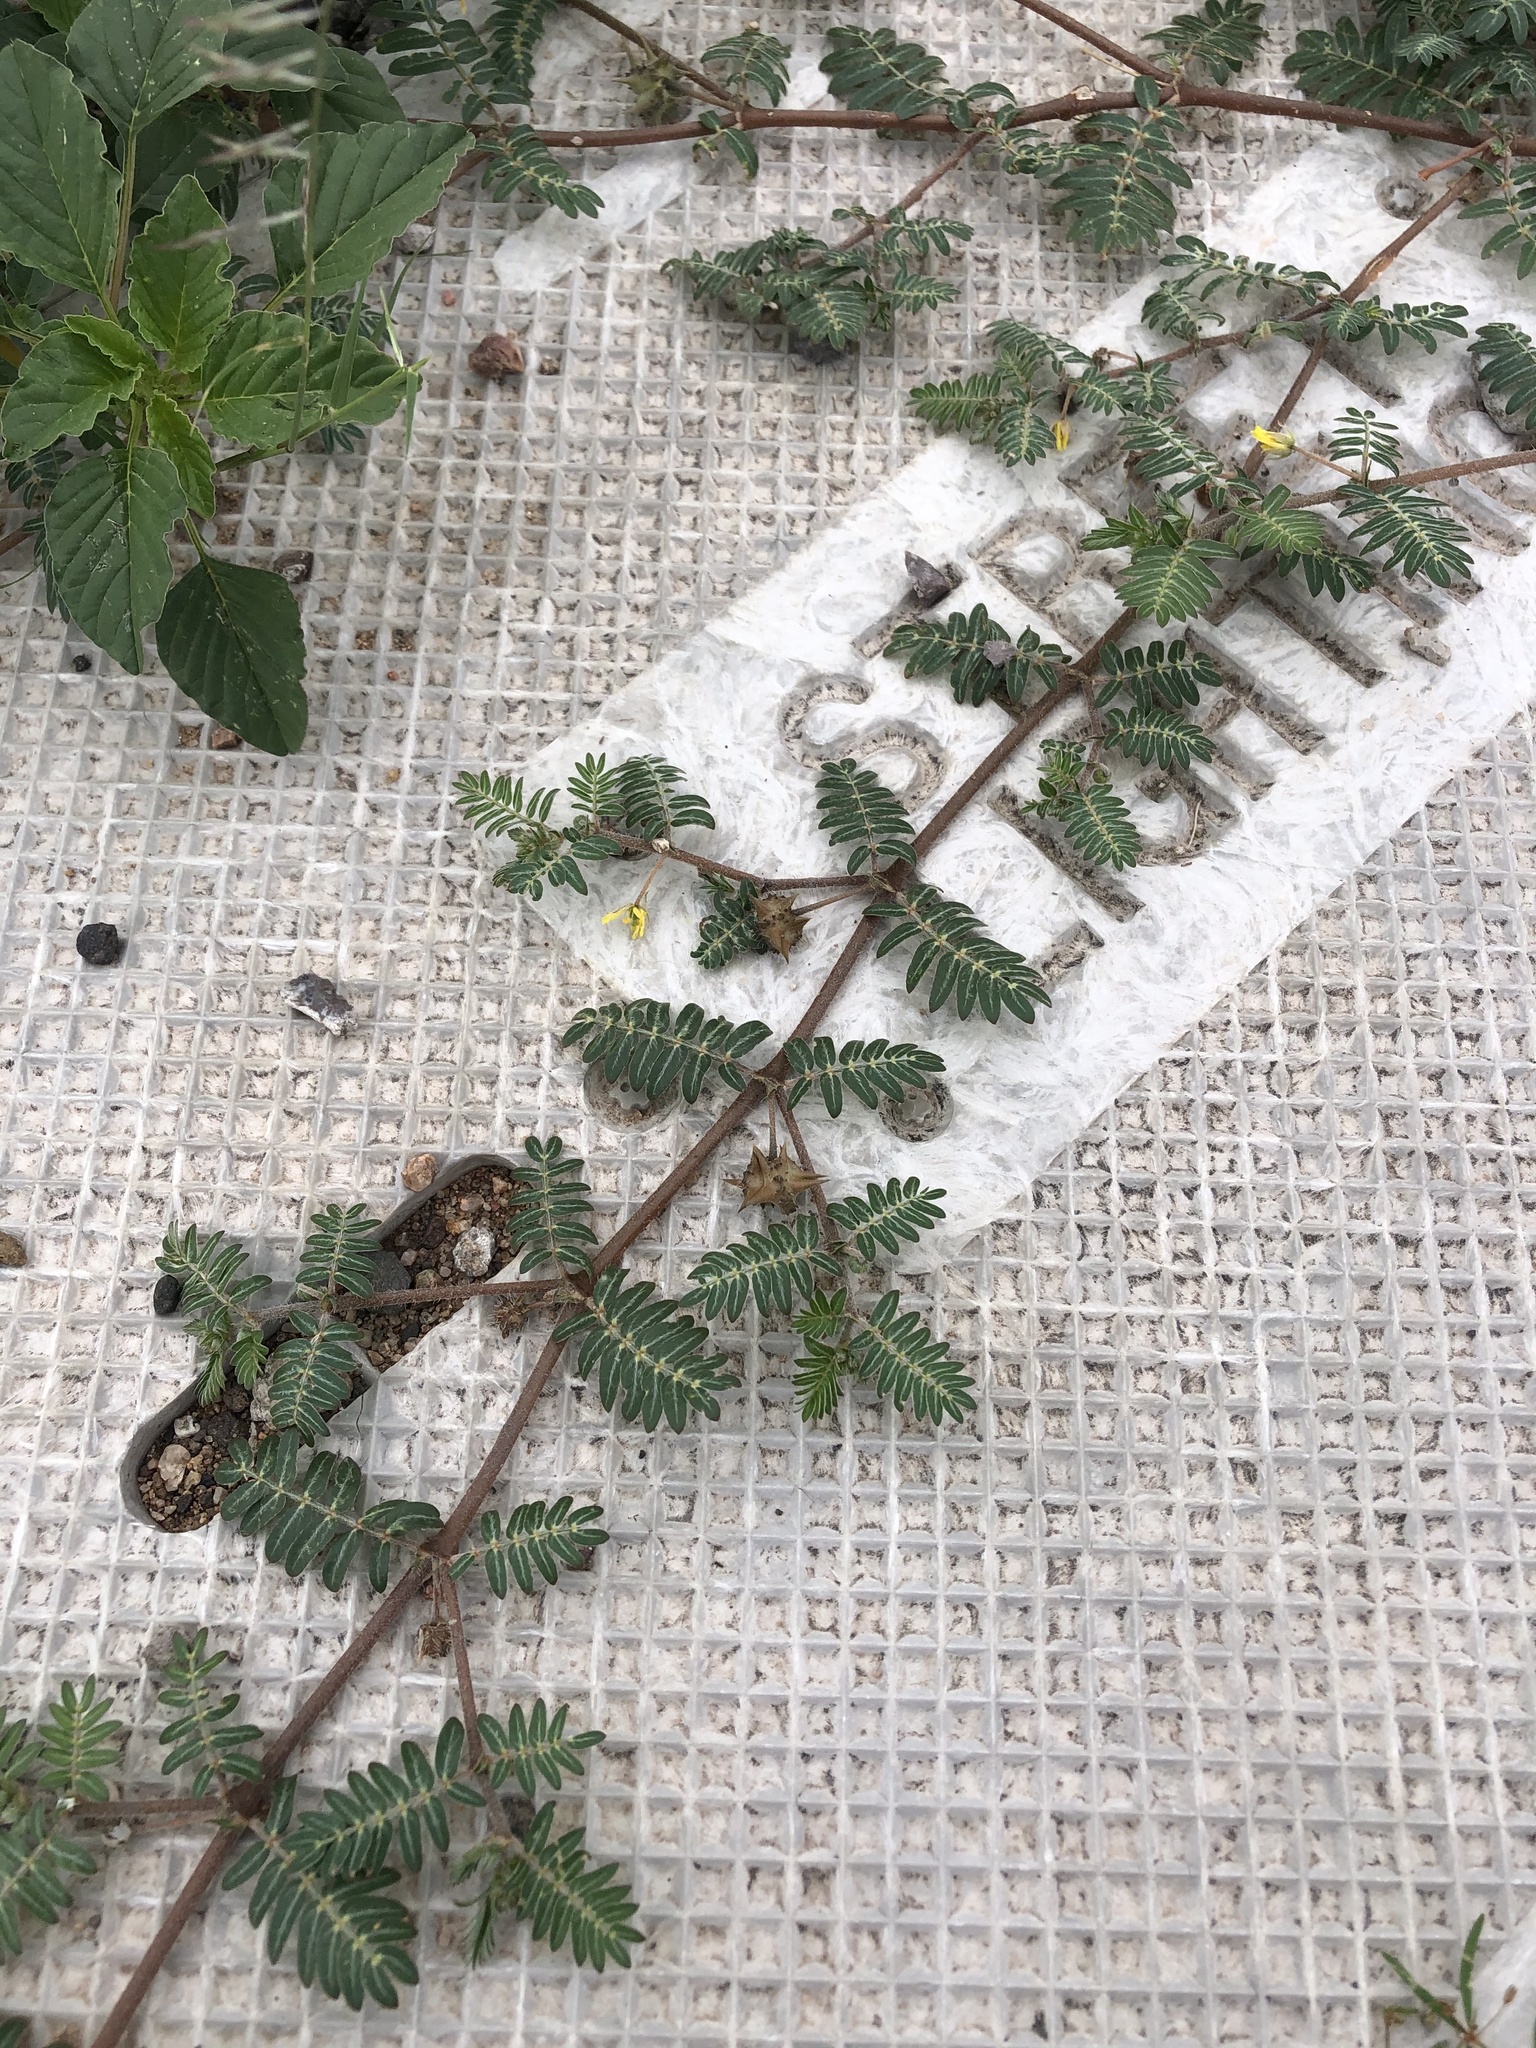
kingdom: Plantae
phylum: Tracheophyta
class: Magnoliopsida
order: Zygophyllales
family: Zygophyllaceae
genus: Tribulus
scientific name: Tribulus terrestris
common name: Puncturevine
